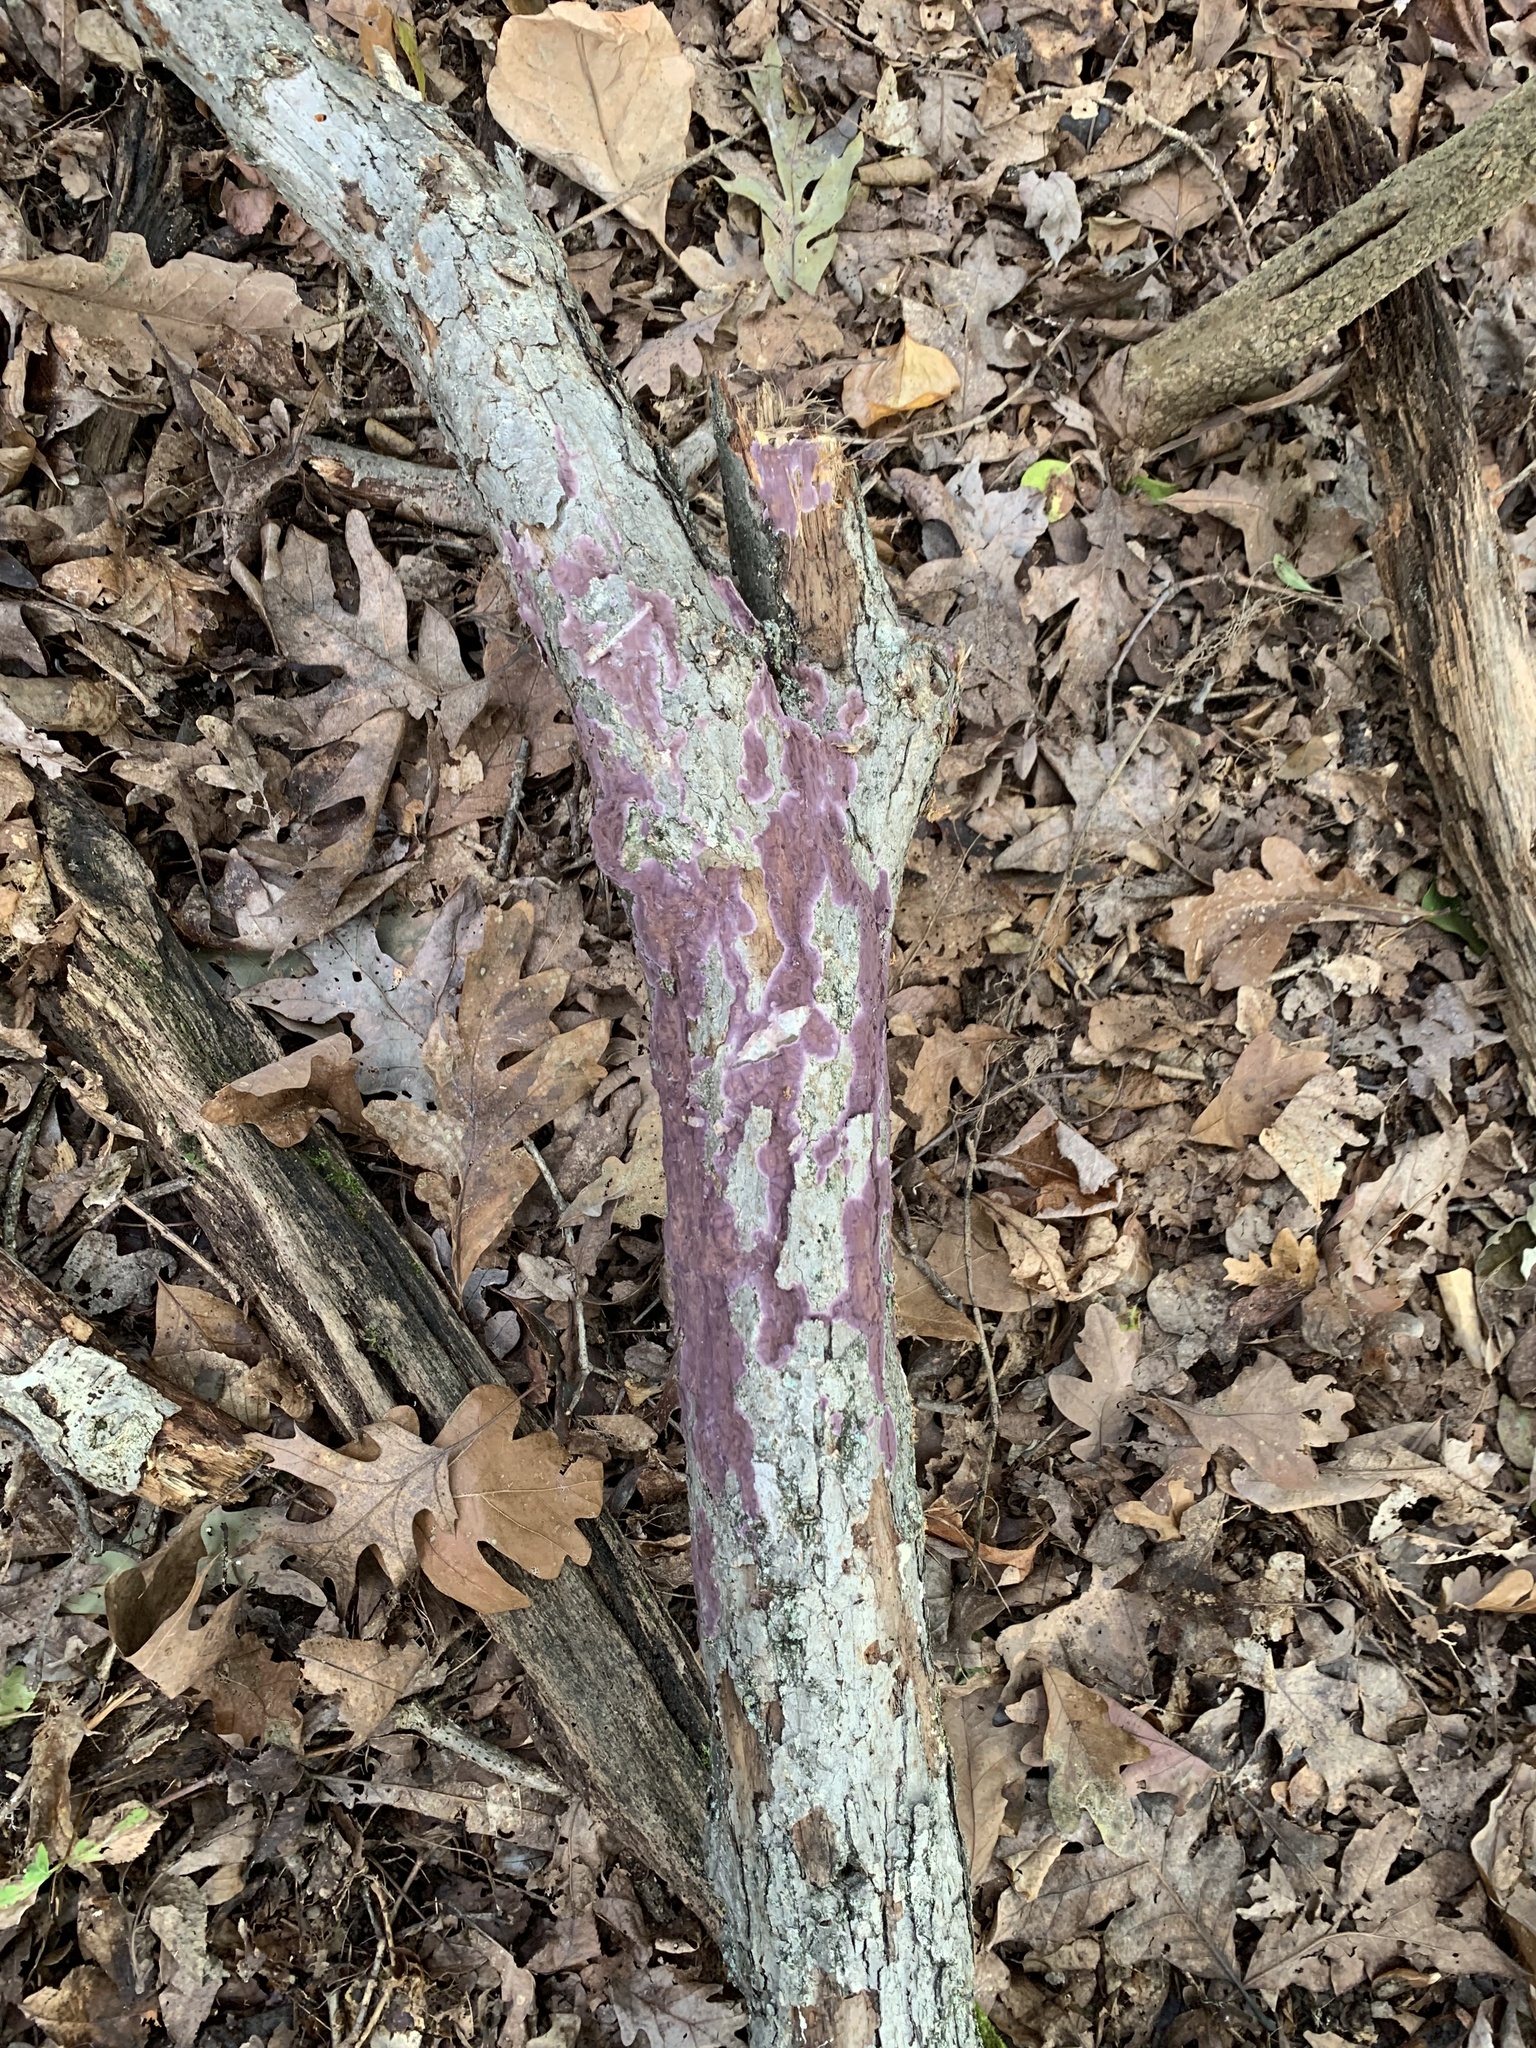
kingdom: Fungi
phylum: Basidiomycota
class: Agaricomycetes
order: Polyporales
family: Phanerochaetaceae
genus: Phlebiopsis
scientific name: Phlebiopsis crassa
